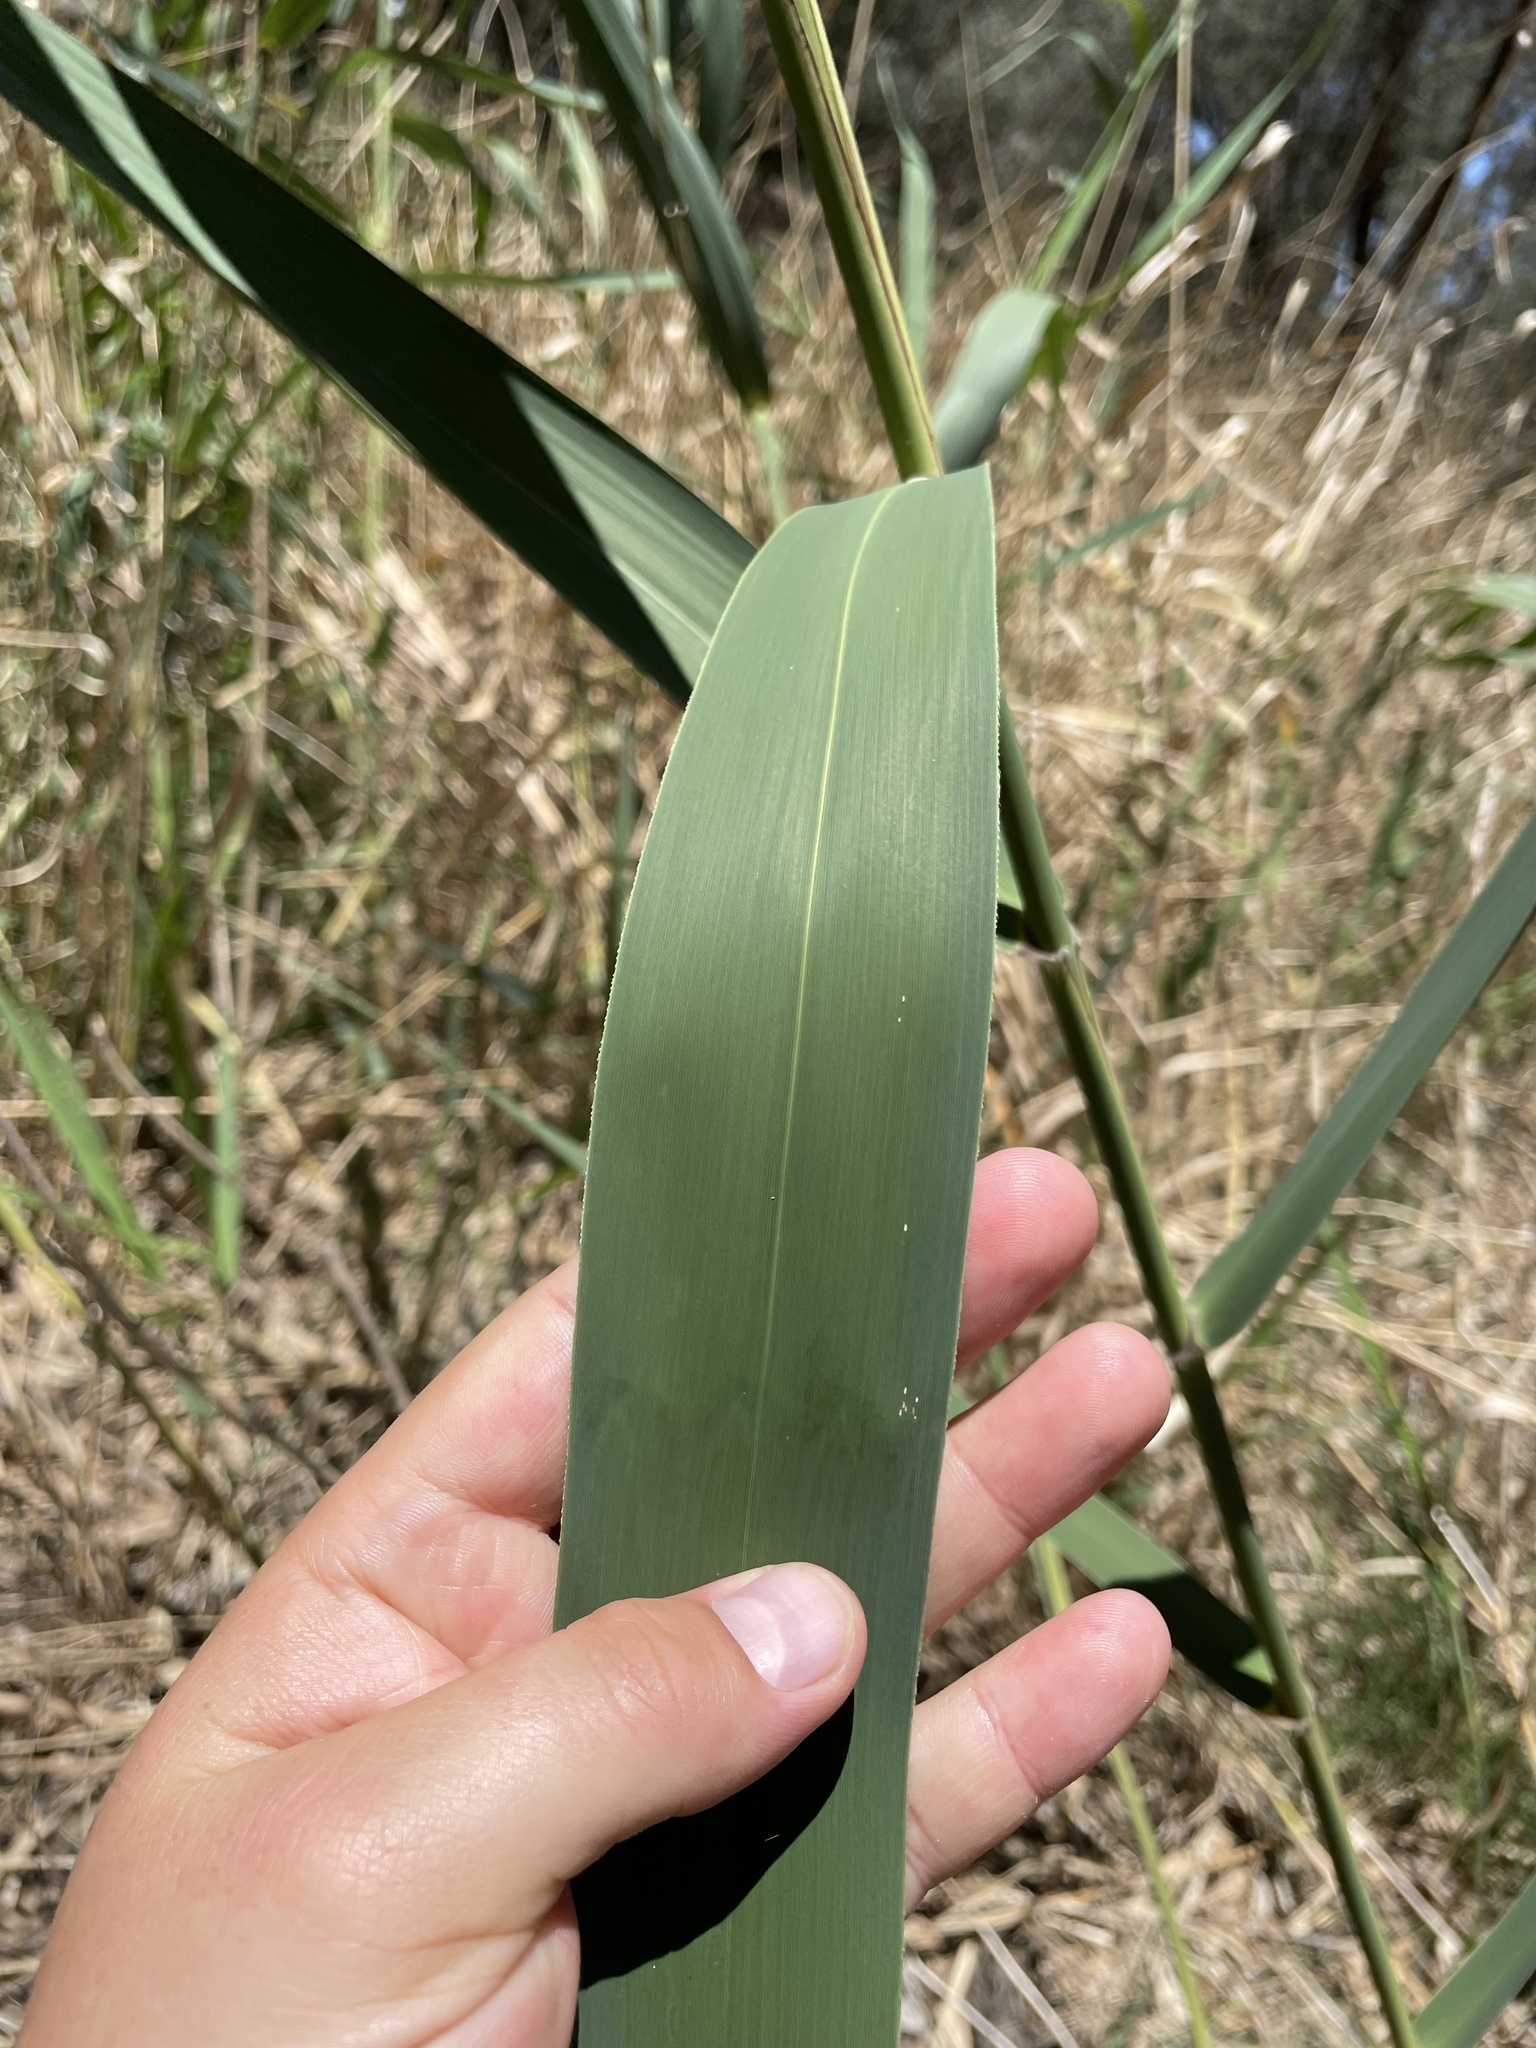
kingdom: Plantae
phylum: Tracheophyta
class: Liliopsida
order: Poales
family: Poaceae
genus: Phragmites
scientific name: Phragmites australis
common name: Common reed
